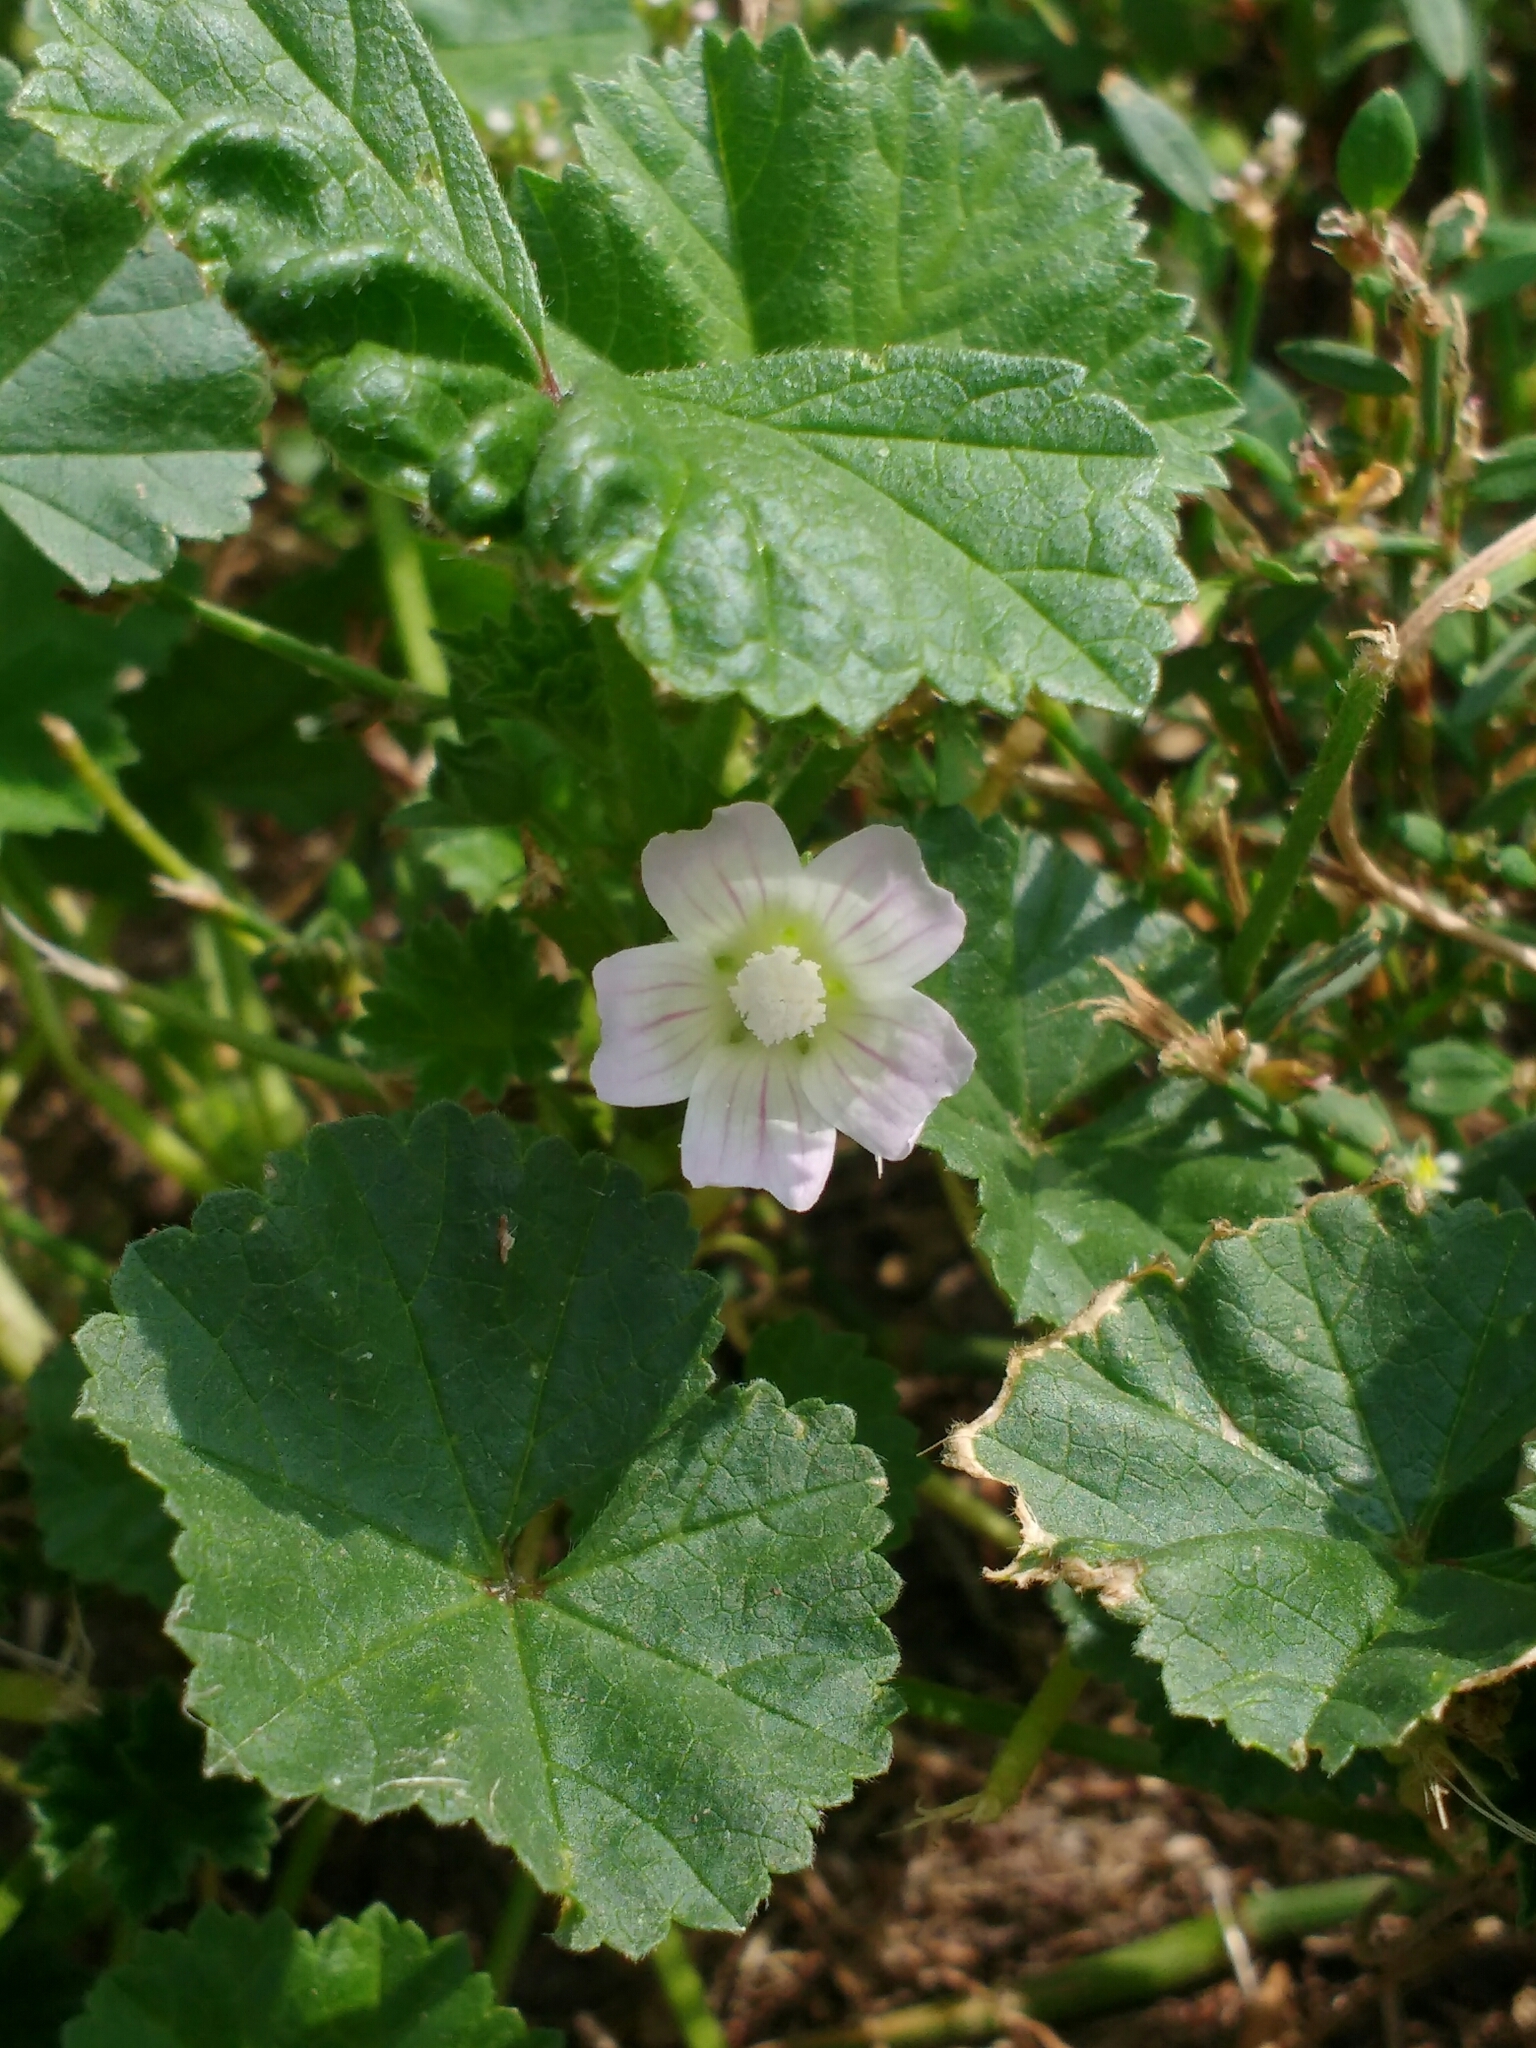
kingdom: Plantae
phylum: Tracheophyta
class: Magnoliopsida
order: Malvales
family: Malvaceae
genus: Malva
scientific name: Malva neglecta
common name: Common mallow
